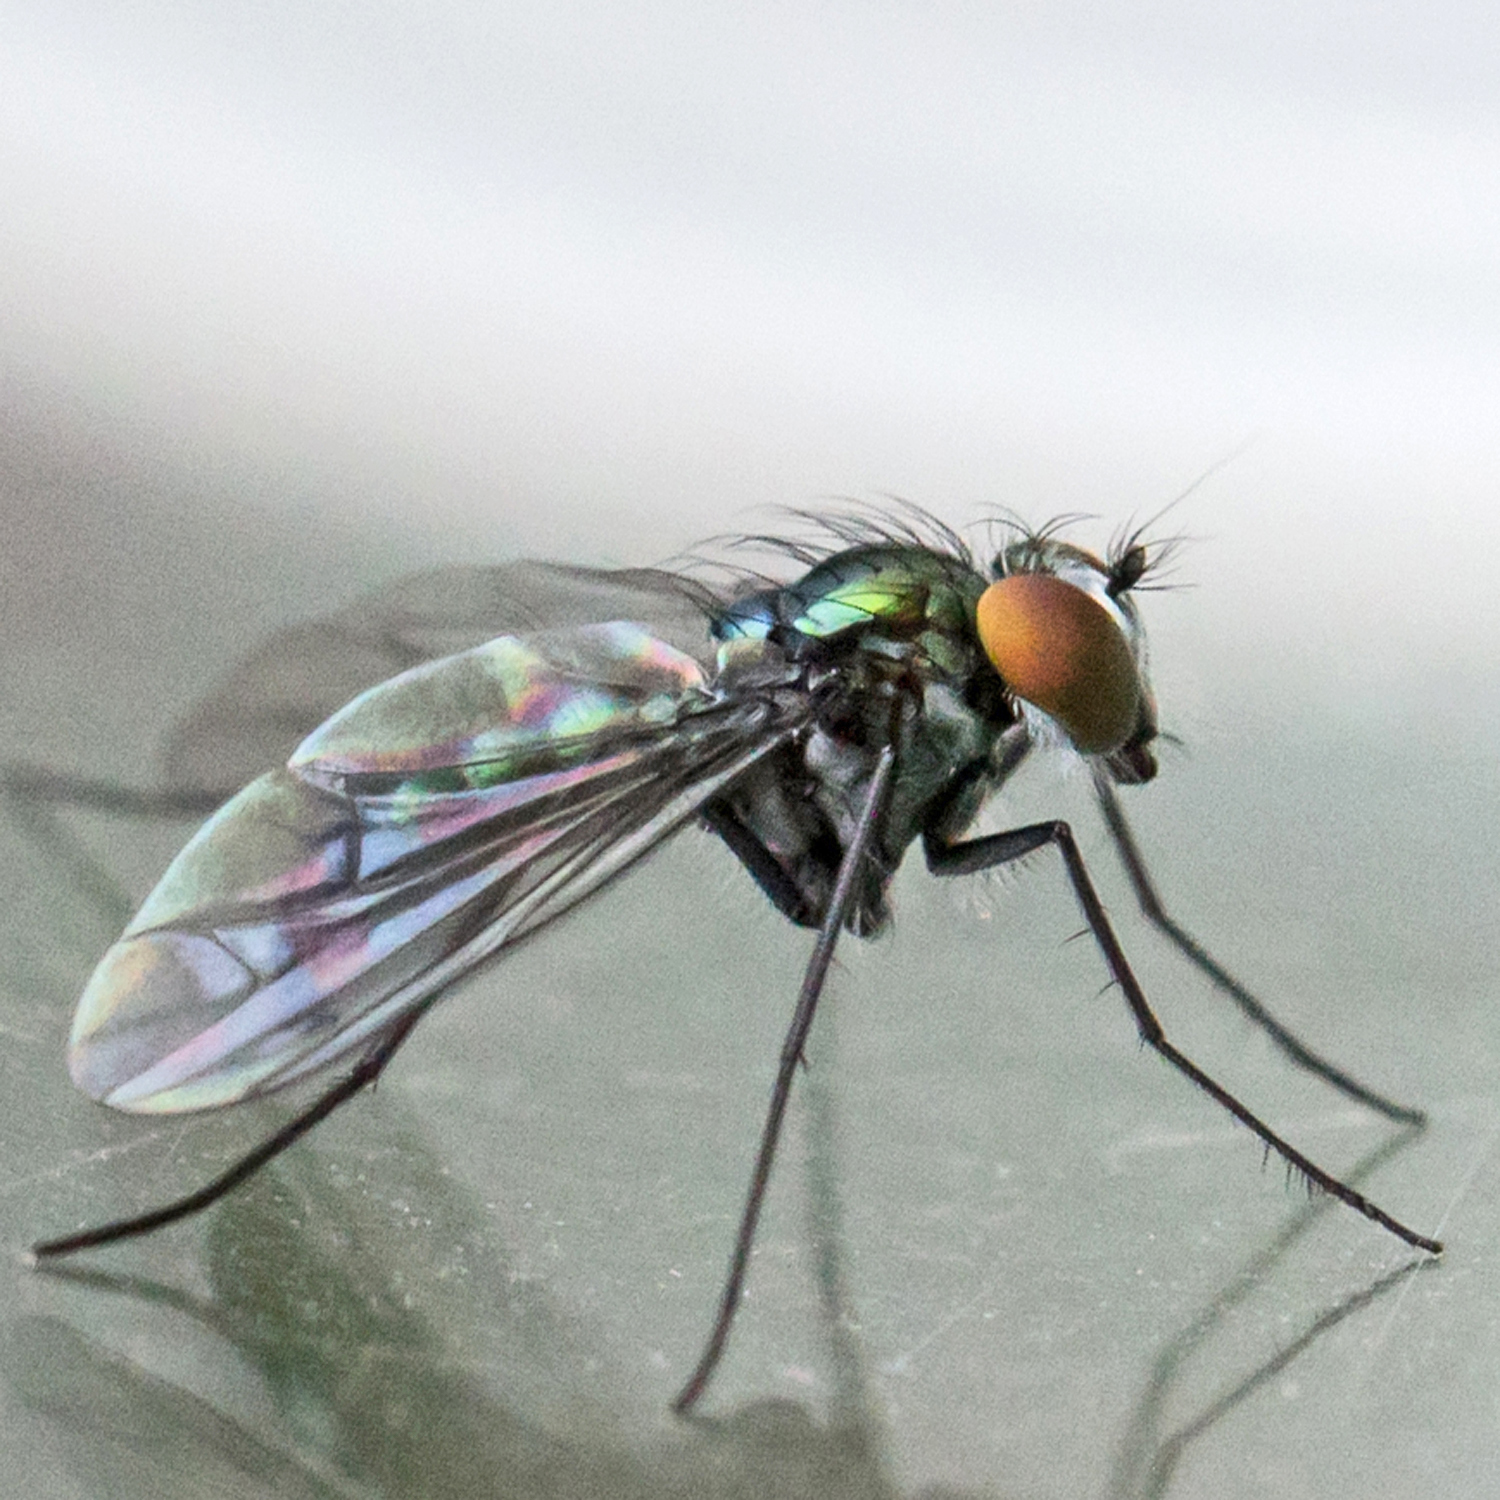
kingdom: Animalia
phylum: Arthropoda
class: Insecta
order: Diptera
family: Dolichopodidae
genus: Condylostylus
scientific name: Condylostylus patibulatus
